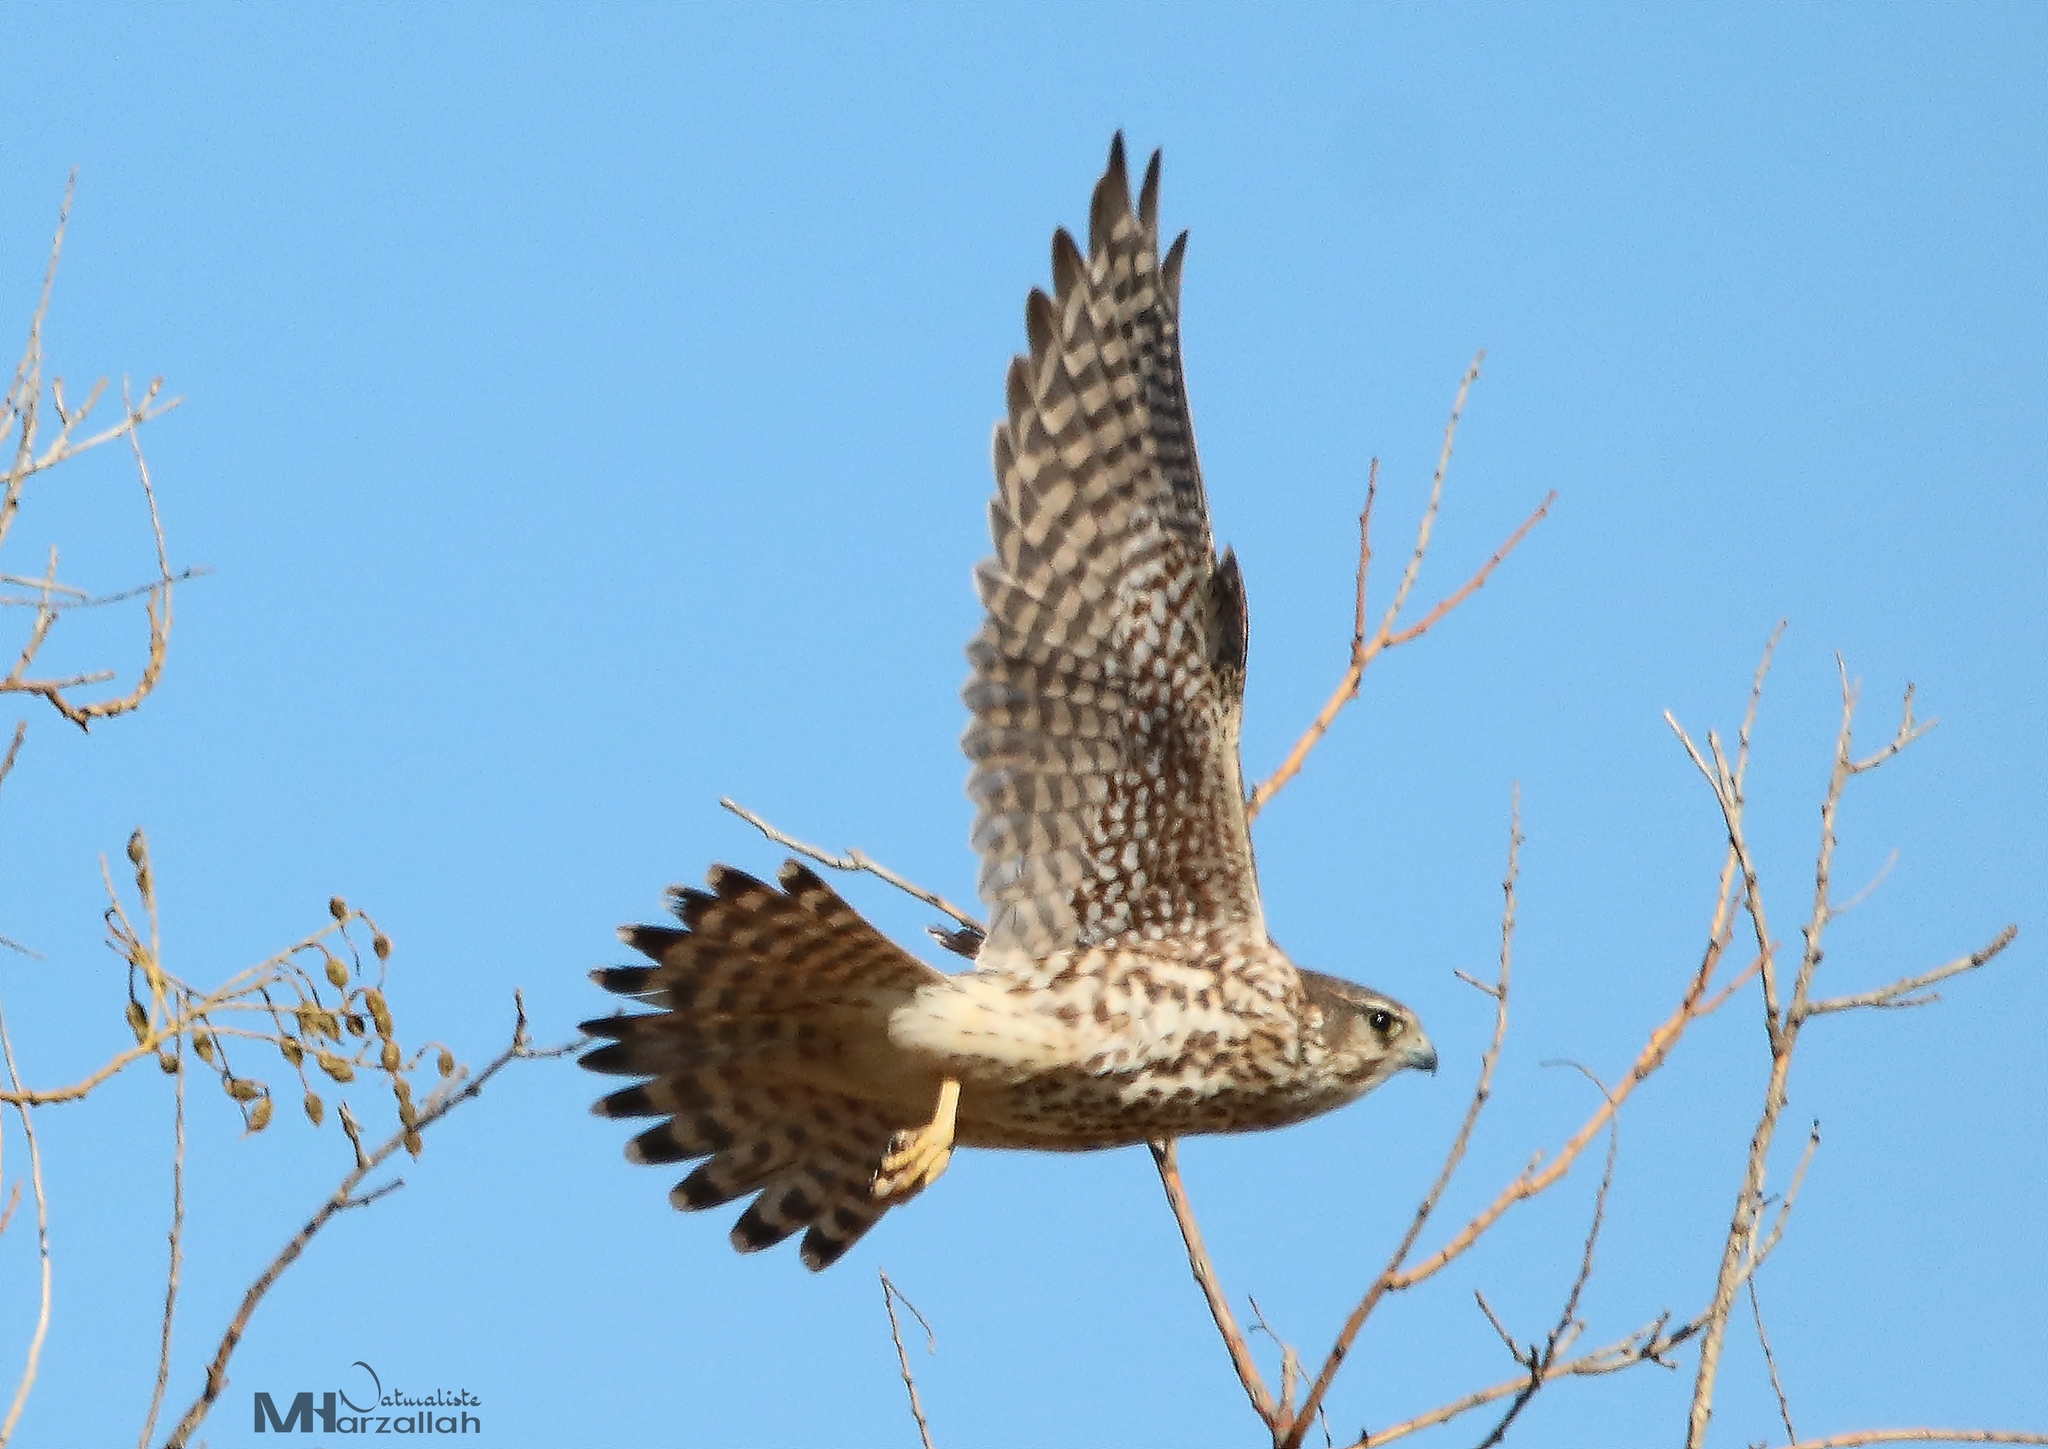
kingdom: Animalia
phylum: Chordata
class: Aves
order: Falconiformes
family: Falconidae
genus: Falco
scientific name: Falco columbarius
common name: Merlin
